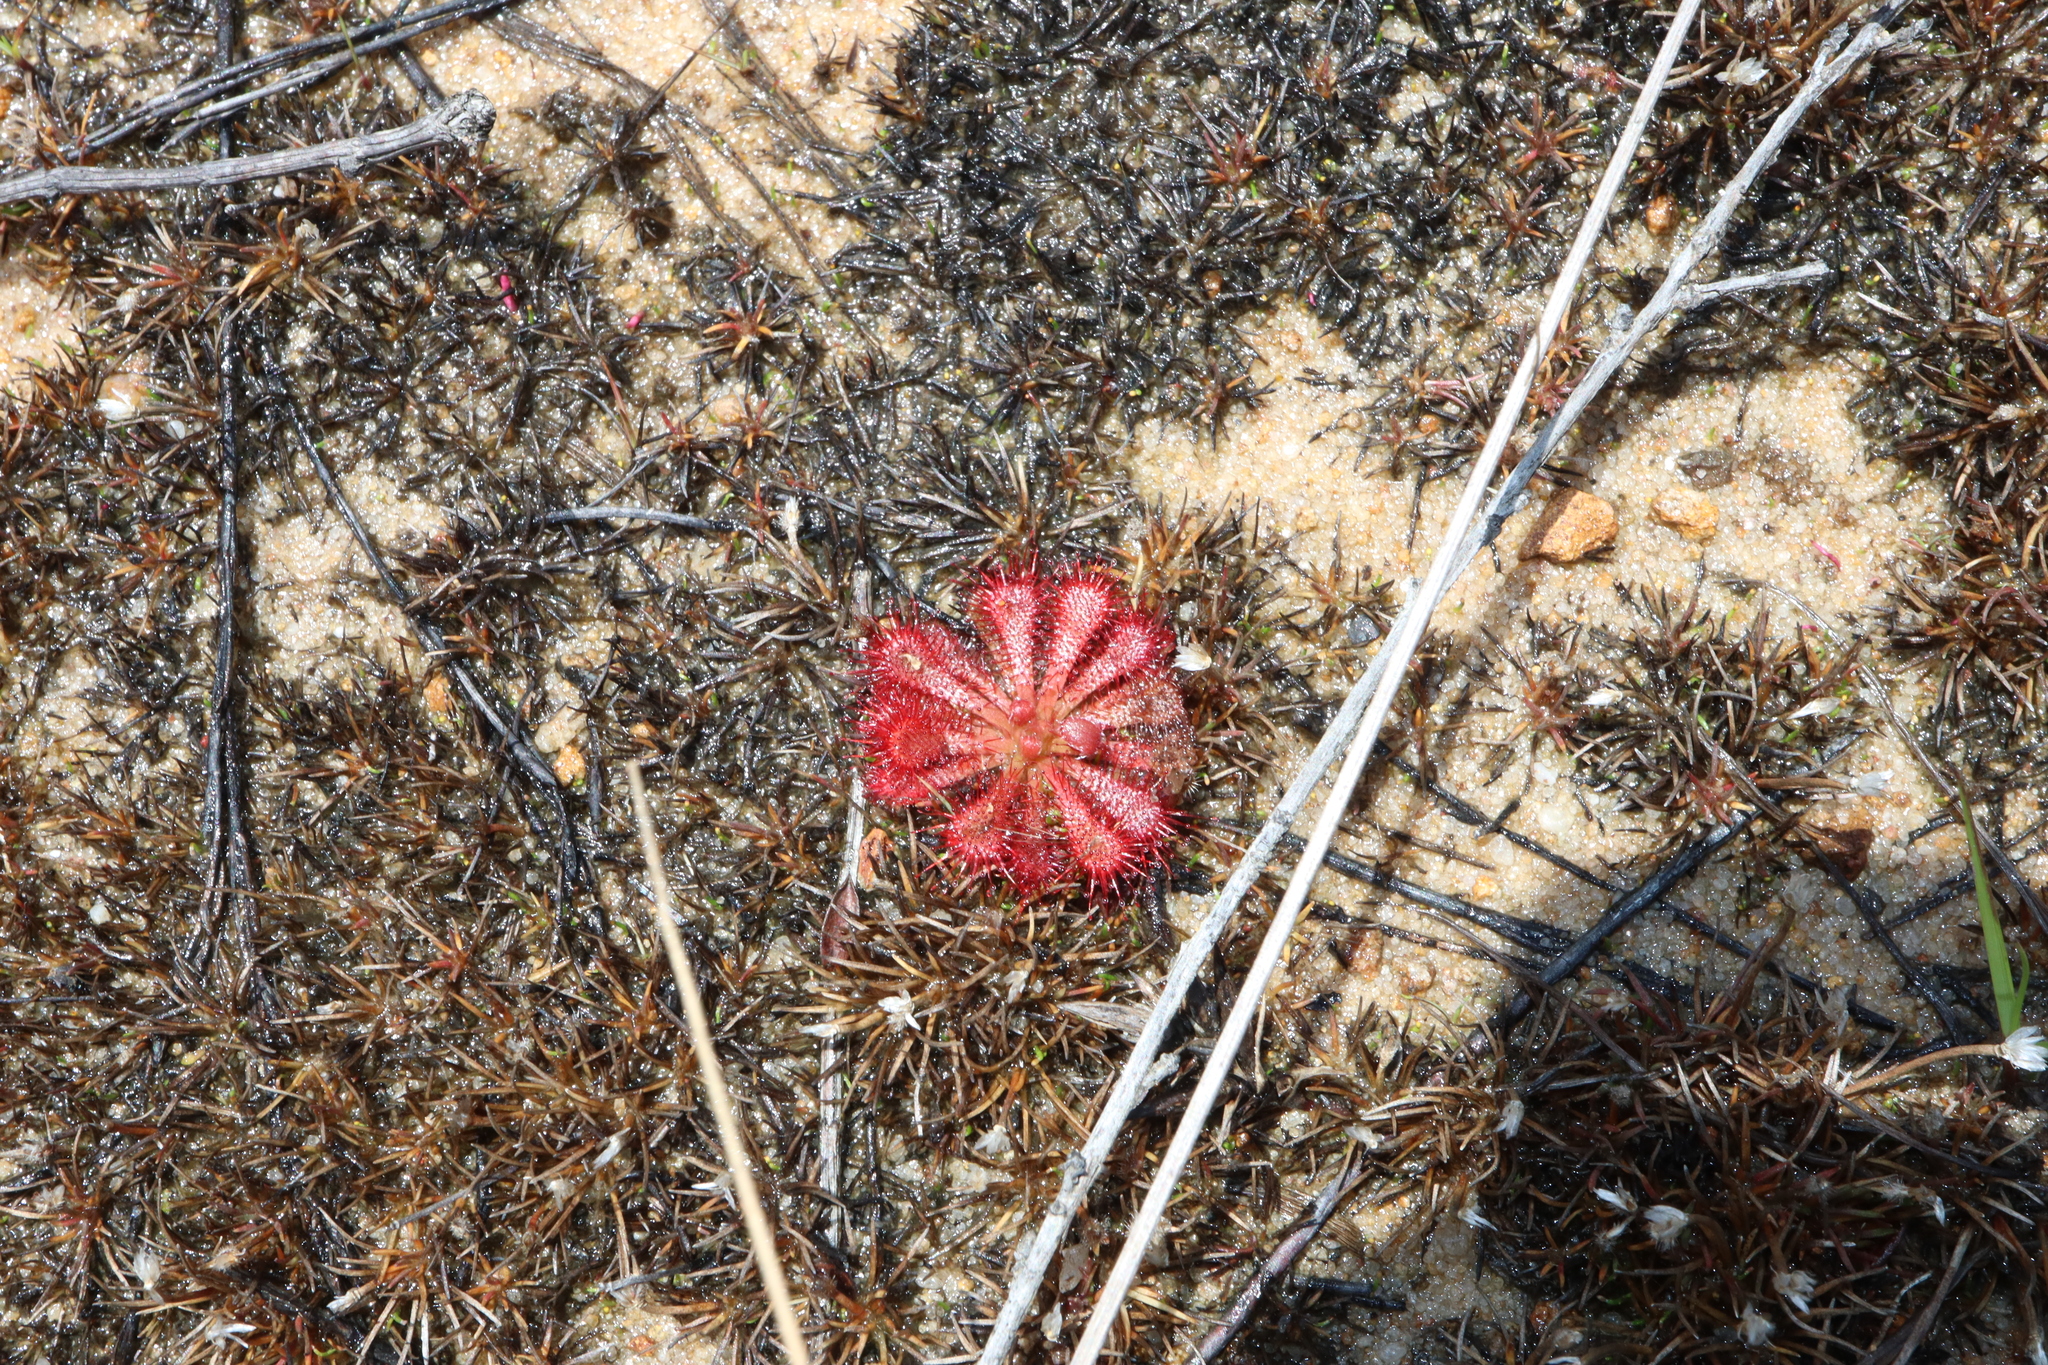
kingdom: Plantae
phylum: Tracheophyta
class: Magnoliopsida
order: Caryophyllales
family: Droseraceae
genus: Drosera
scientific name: Drosera spatulata
